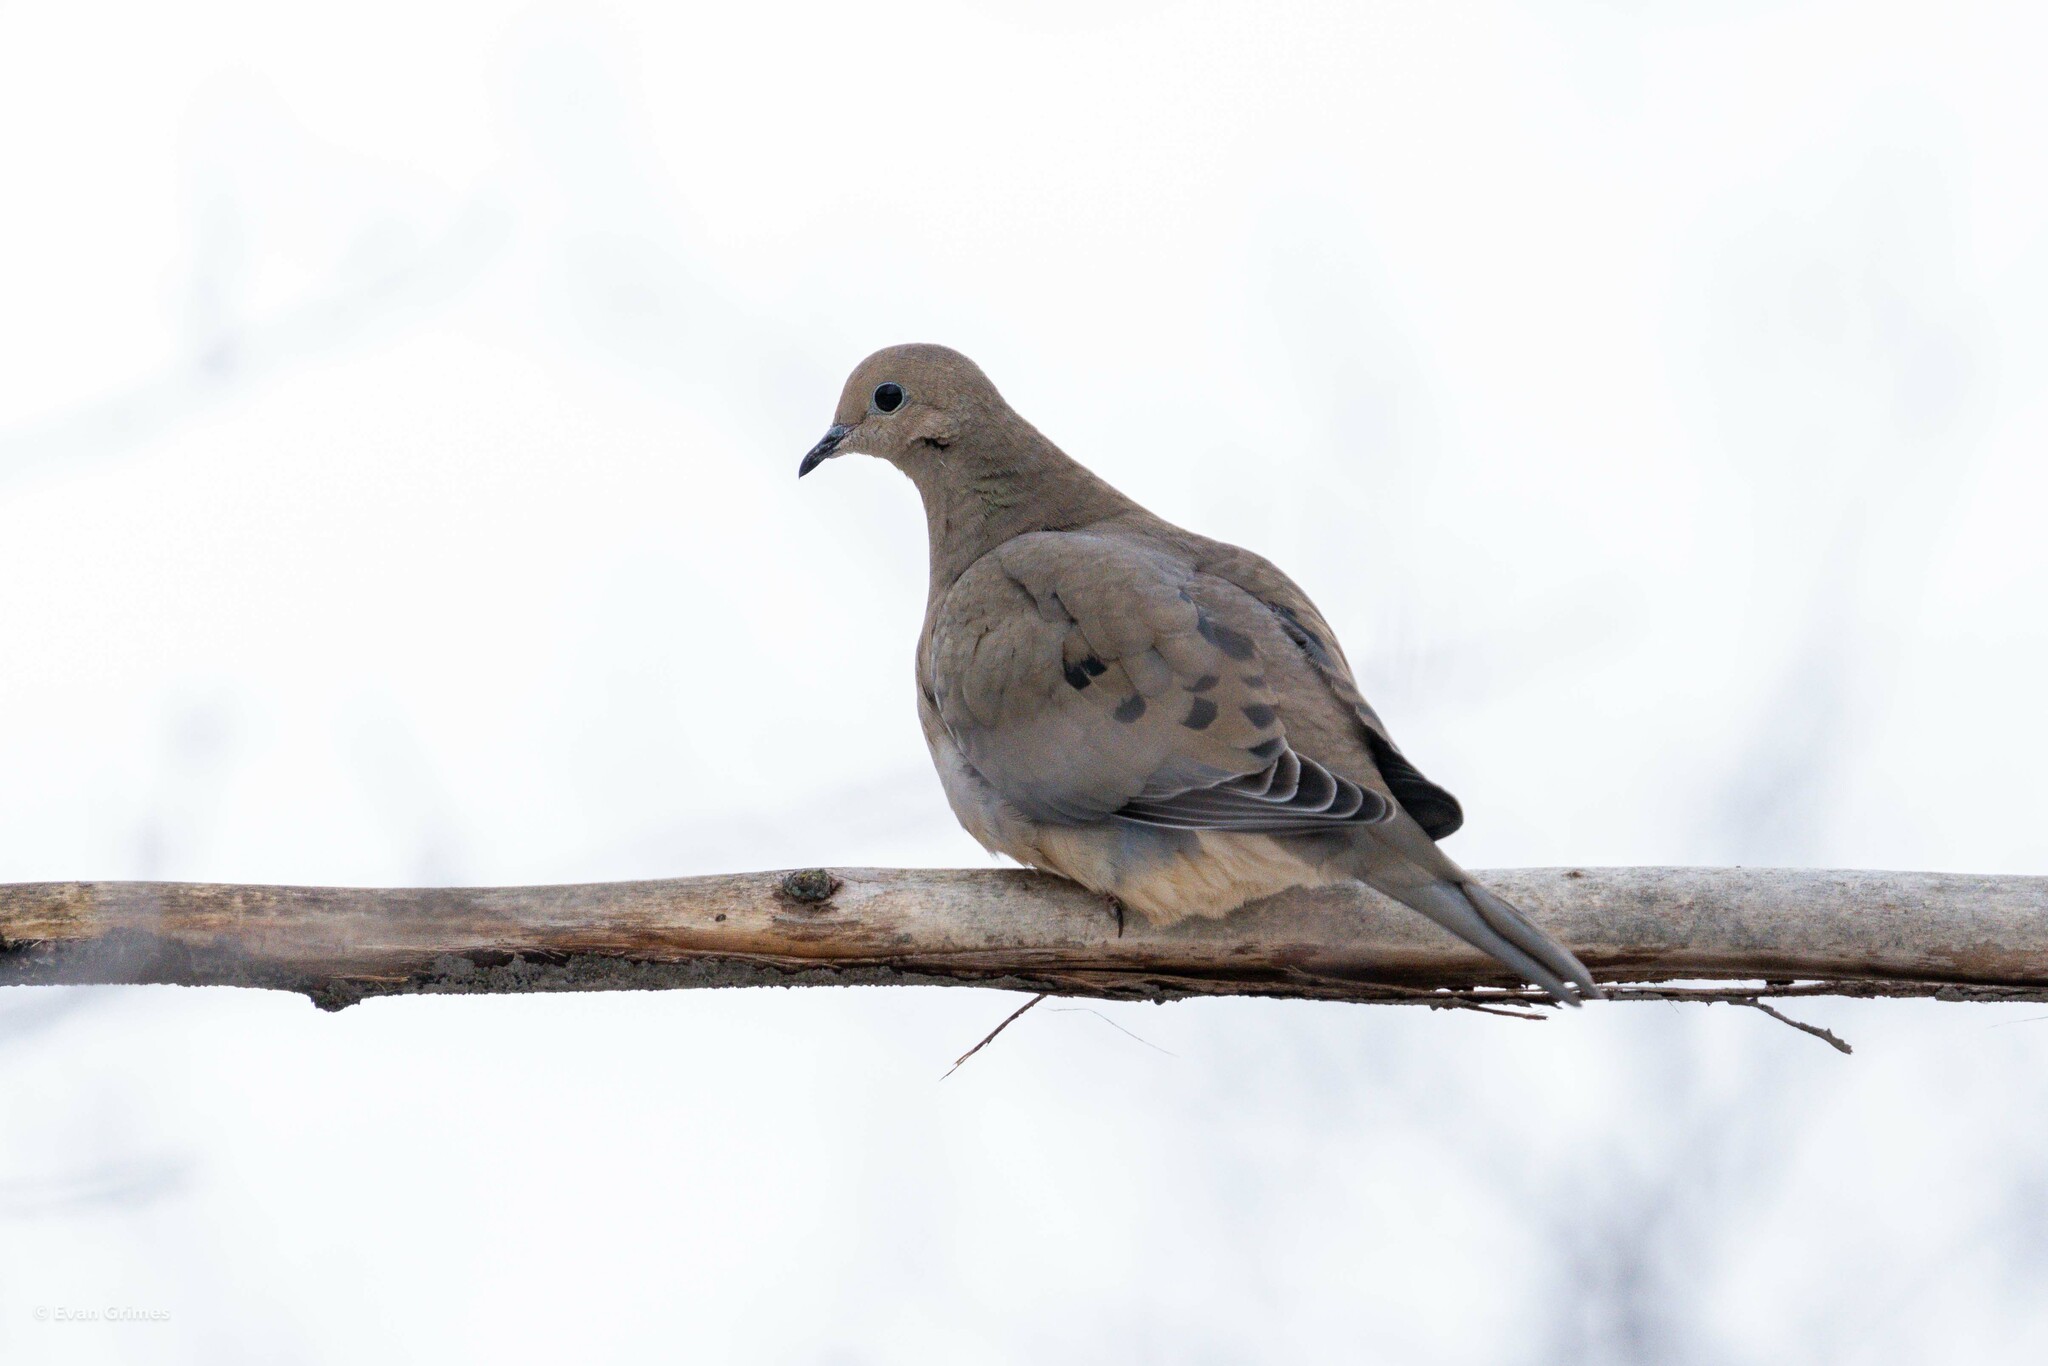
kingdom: Animalia
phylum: Chordata
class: Aves
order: Columbiformes
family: Columbidae
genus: Zenaida
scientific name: Zenaida macroura
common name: Mourning dove
